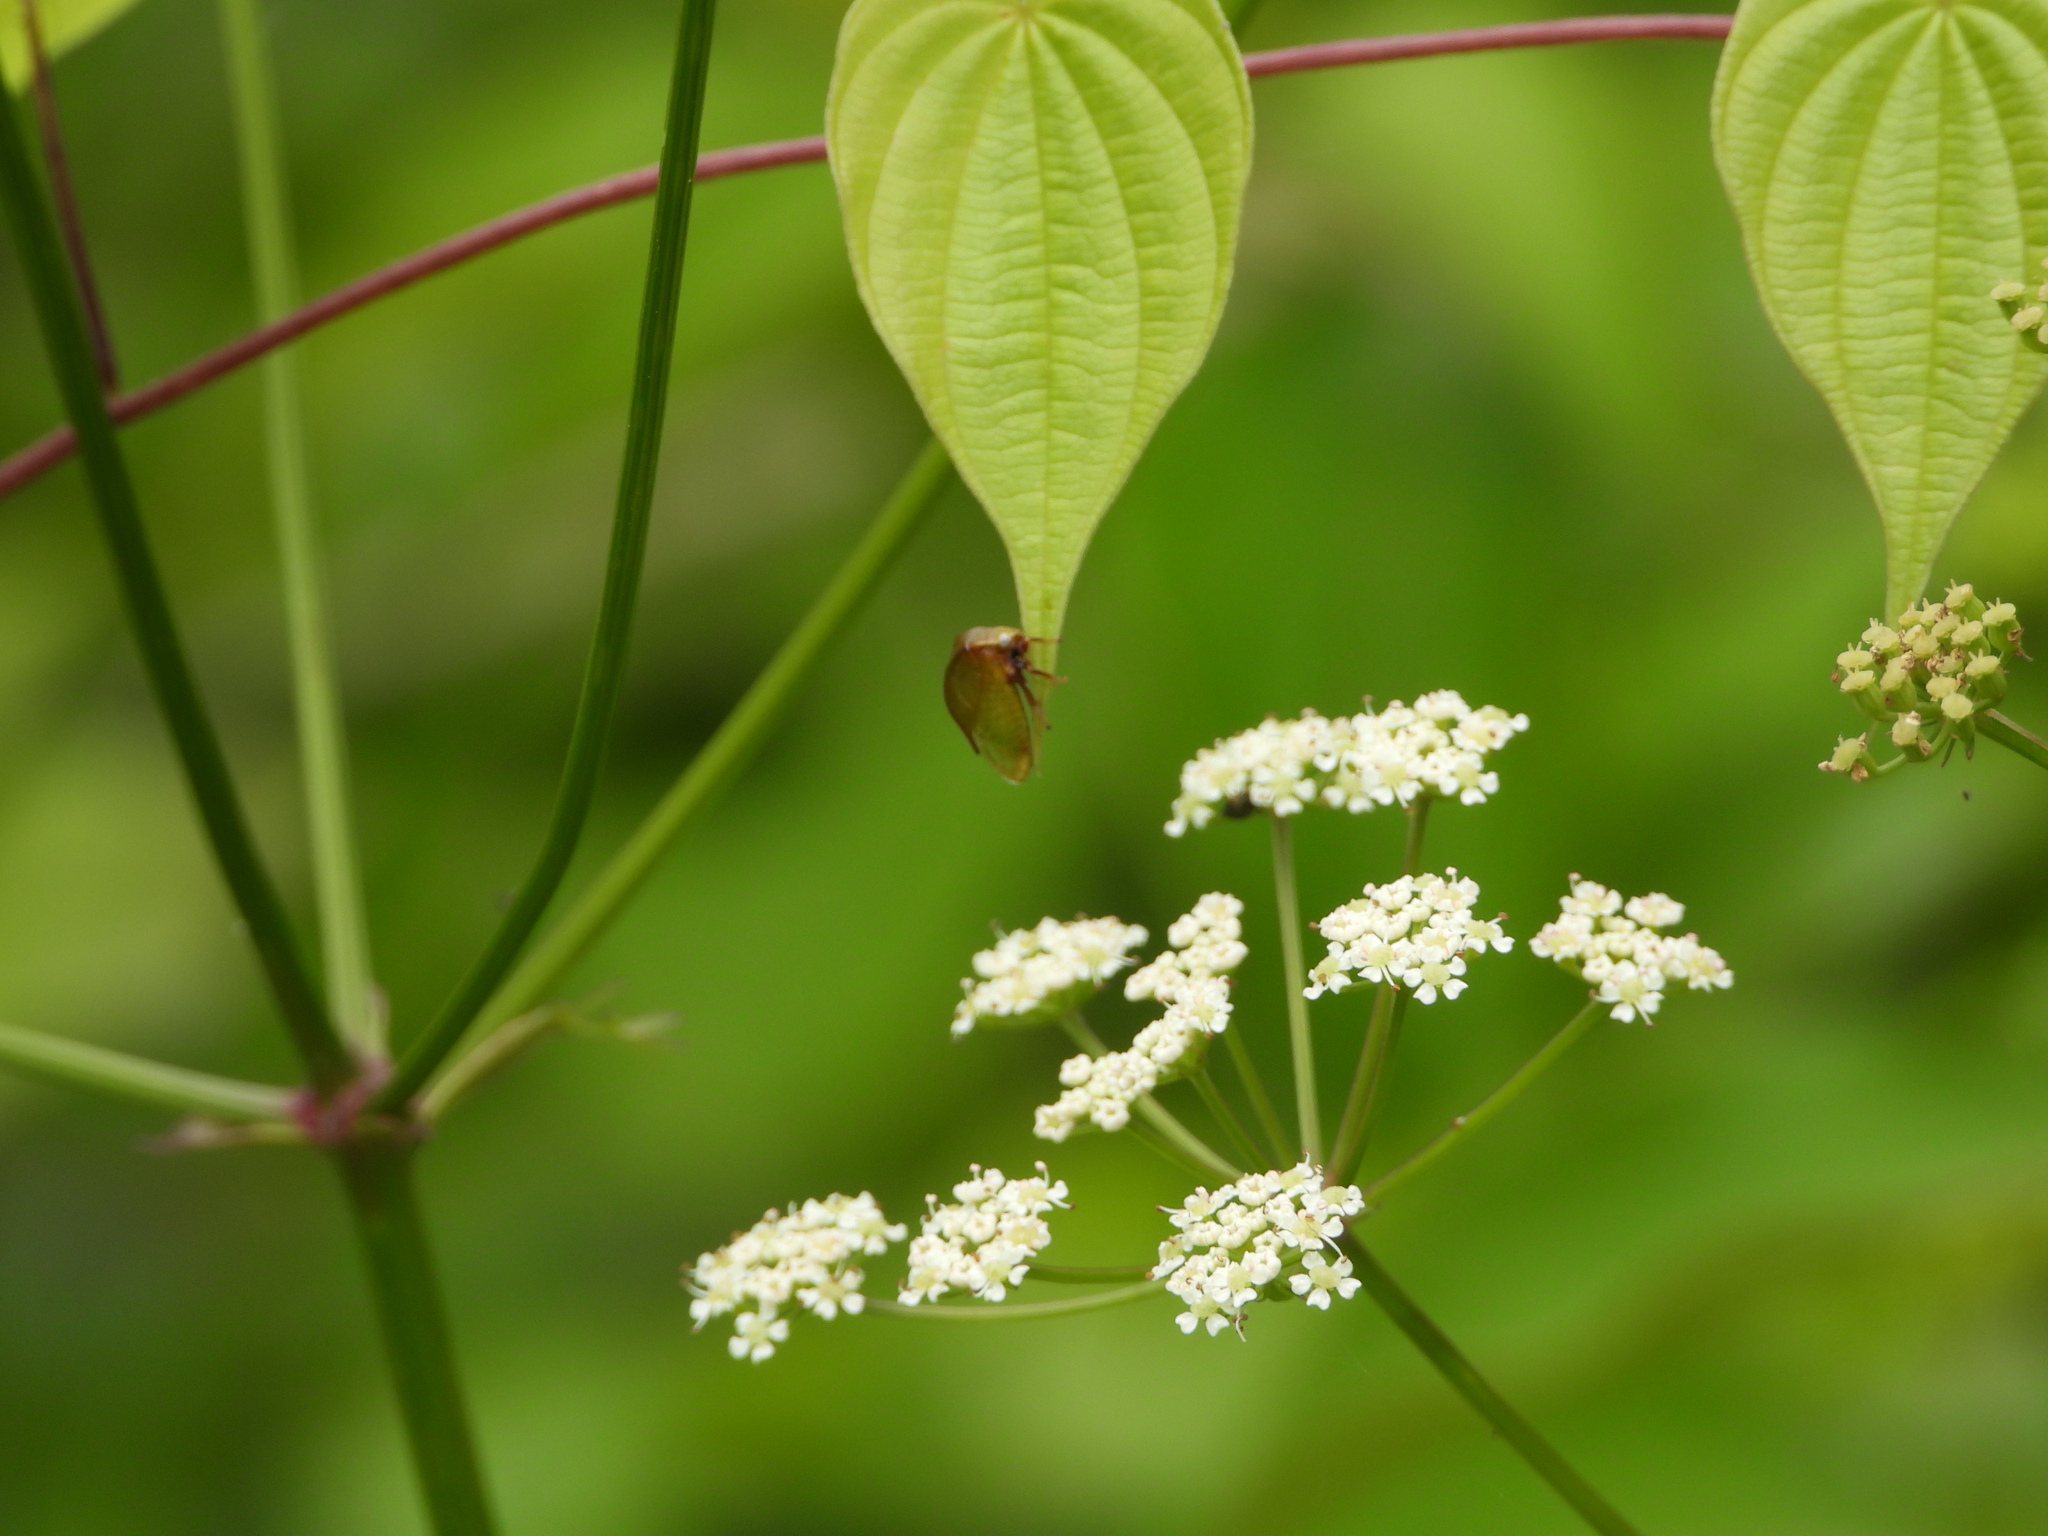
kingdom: Animalia
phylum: Arthropoda
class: Insecta
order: Hemiptera
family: Membracidae
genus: Stictocephala
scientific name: Stictocephala brevitylus
